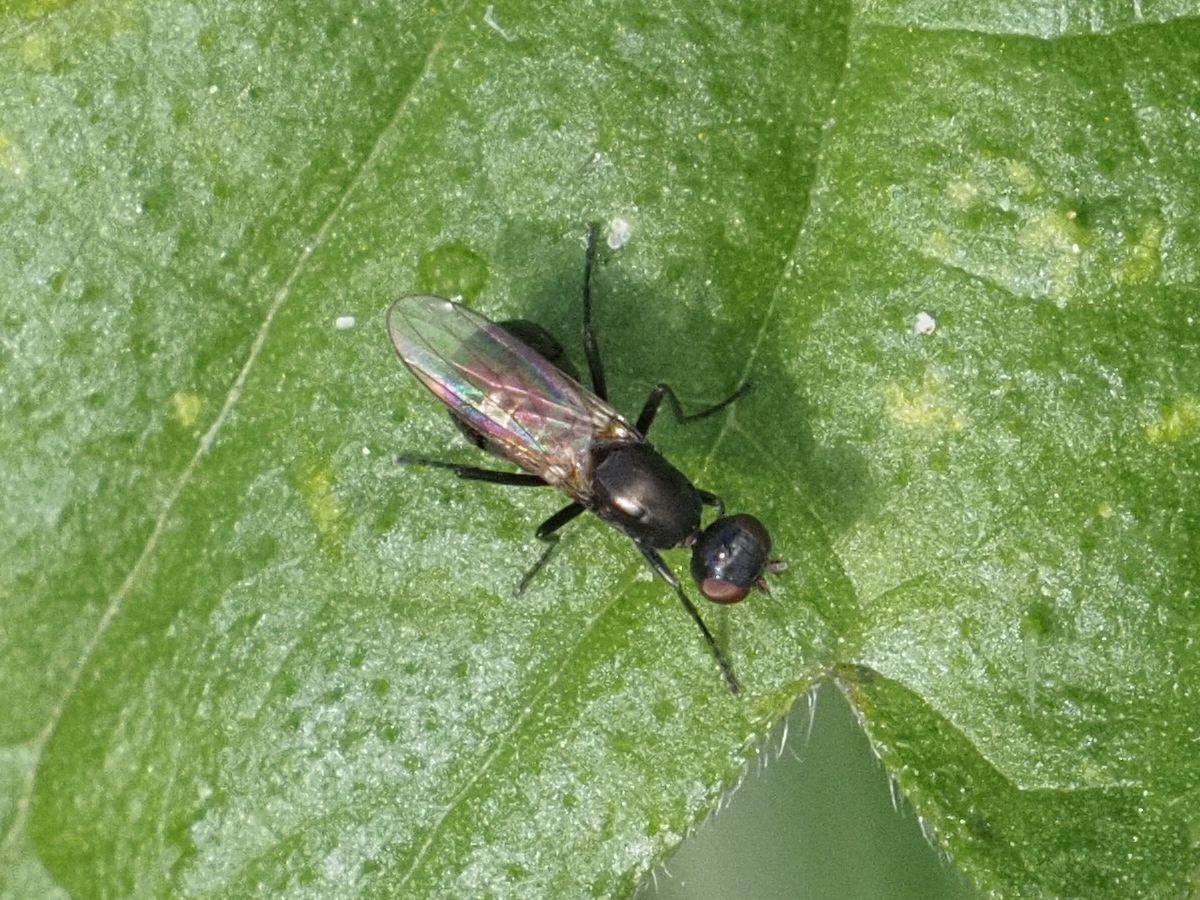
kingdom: Animalia
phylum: Arthropoda
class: Insecta
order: Diptera
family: Sepsidae
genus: Nemopoda
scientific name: Nemopoda nitidula
